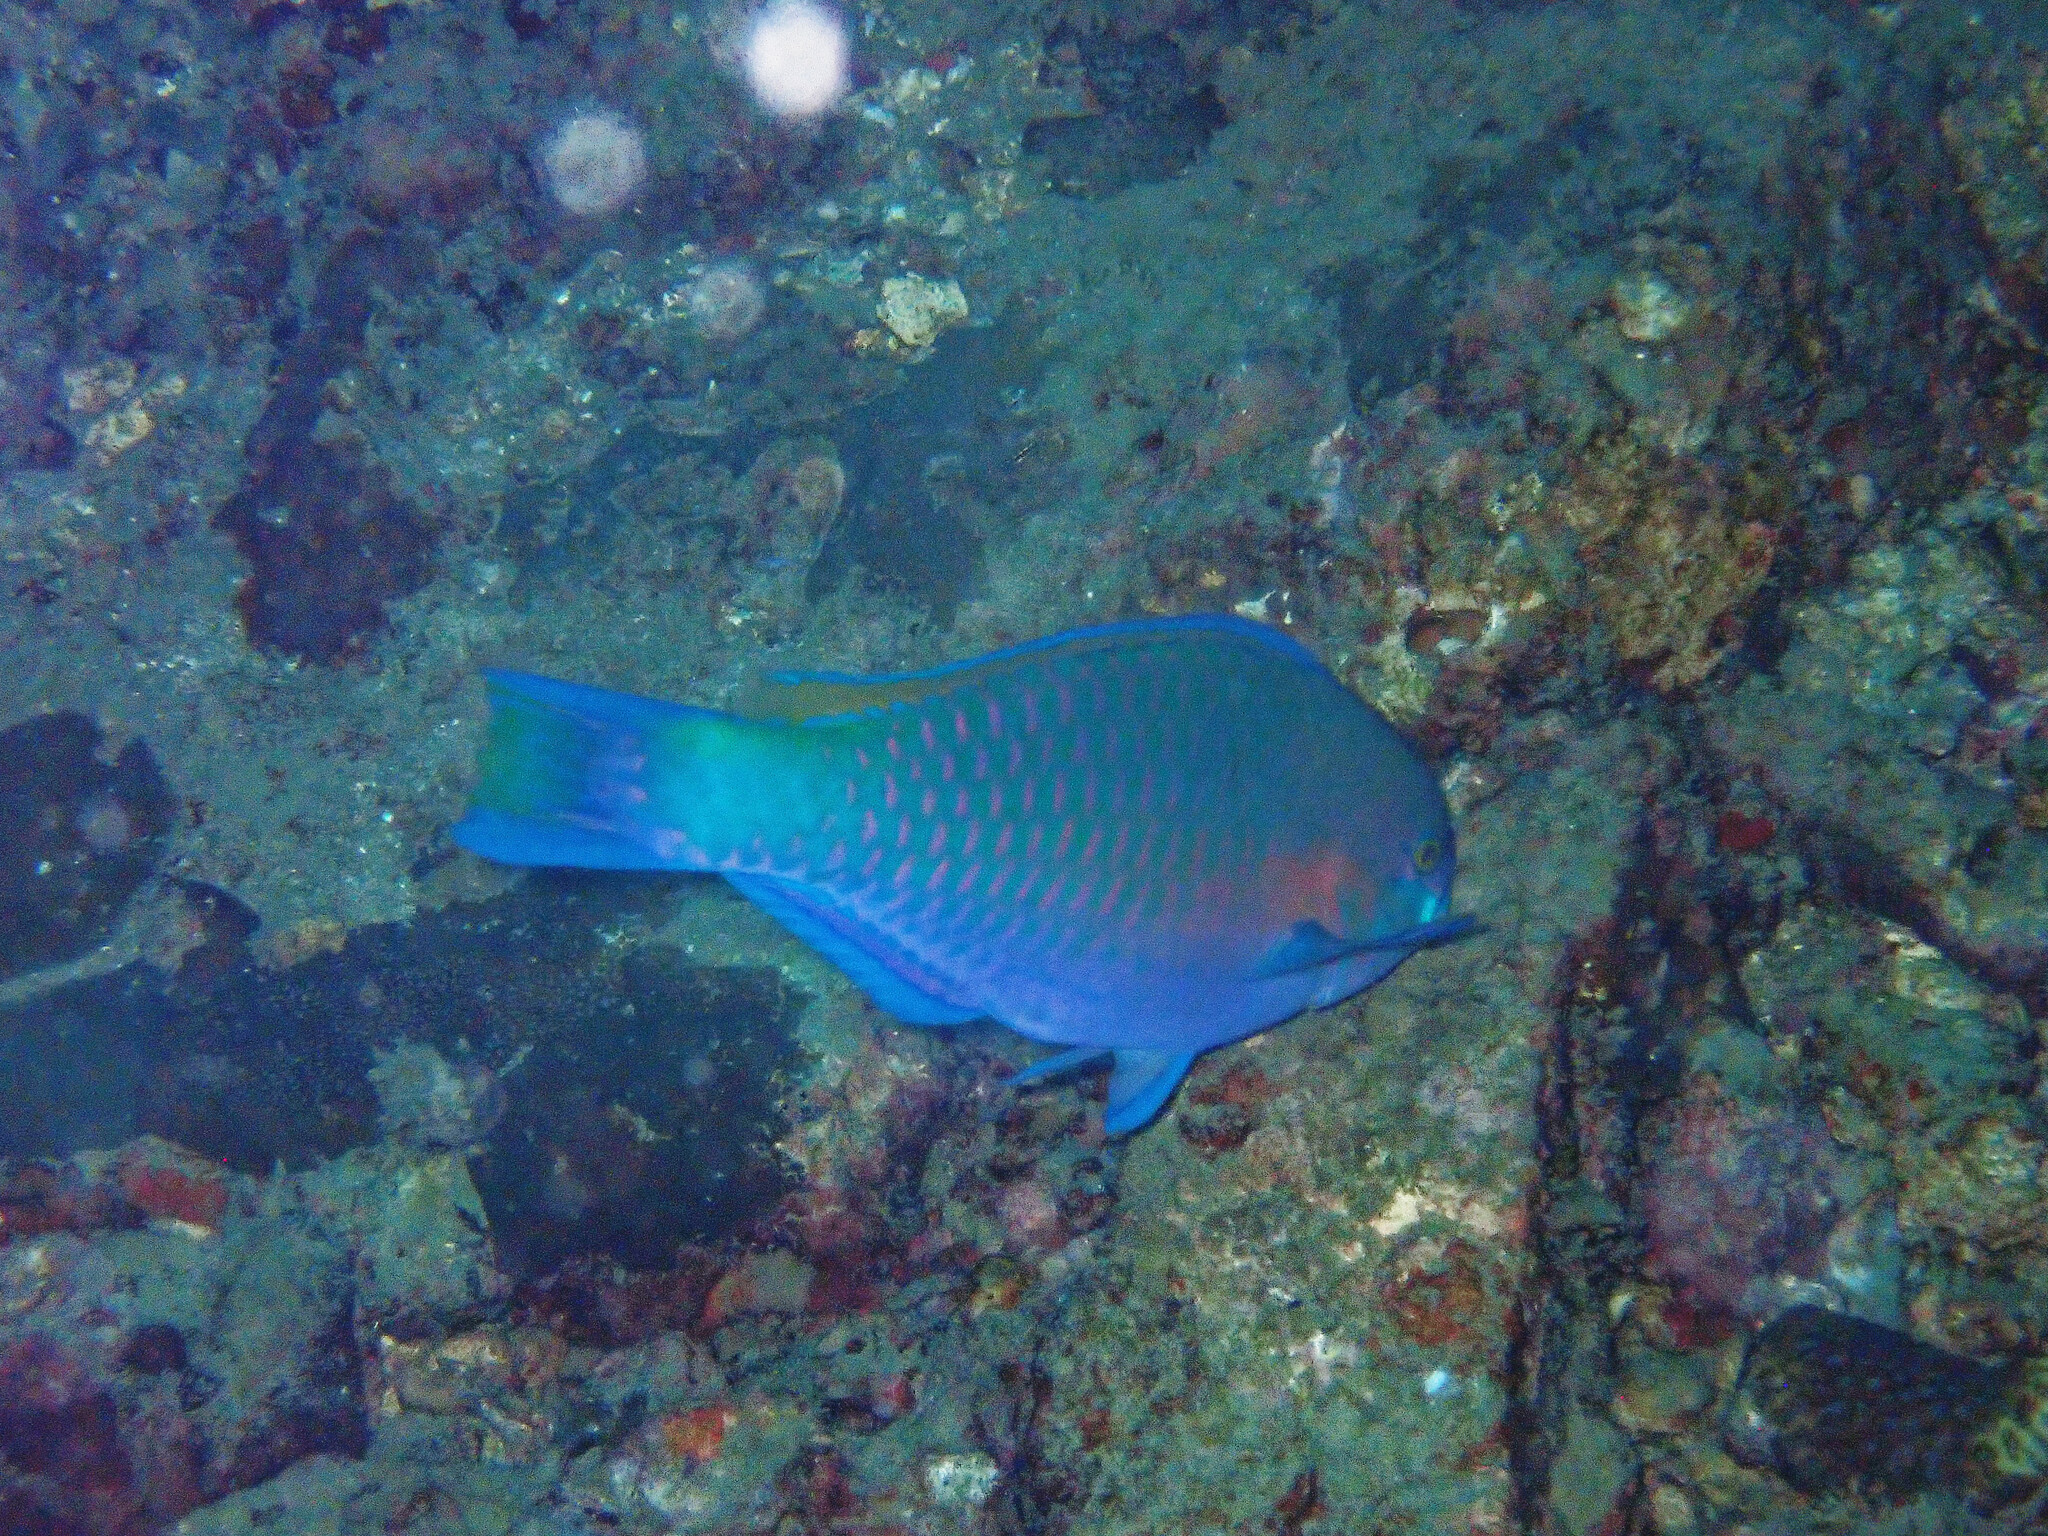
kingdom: Animalia
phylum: Chordata
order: Perciformes
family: Scaridae
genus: Scarus
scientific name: Scarus quoyi
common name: Quoy's parrotfish
